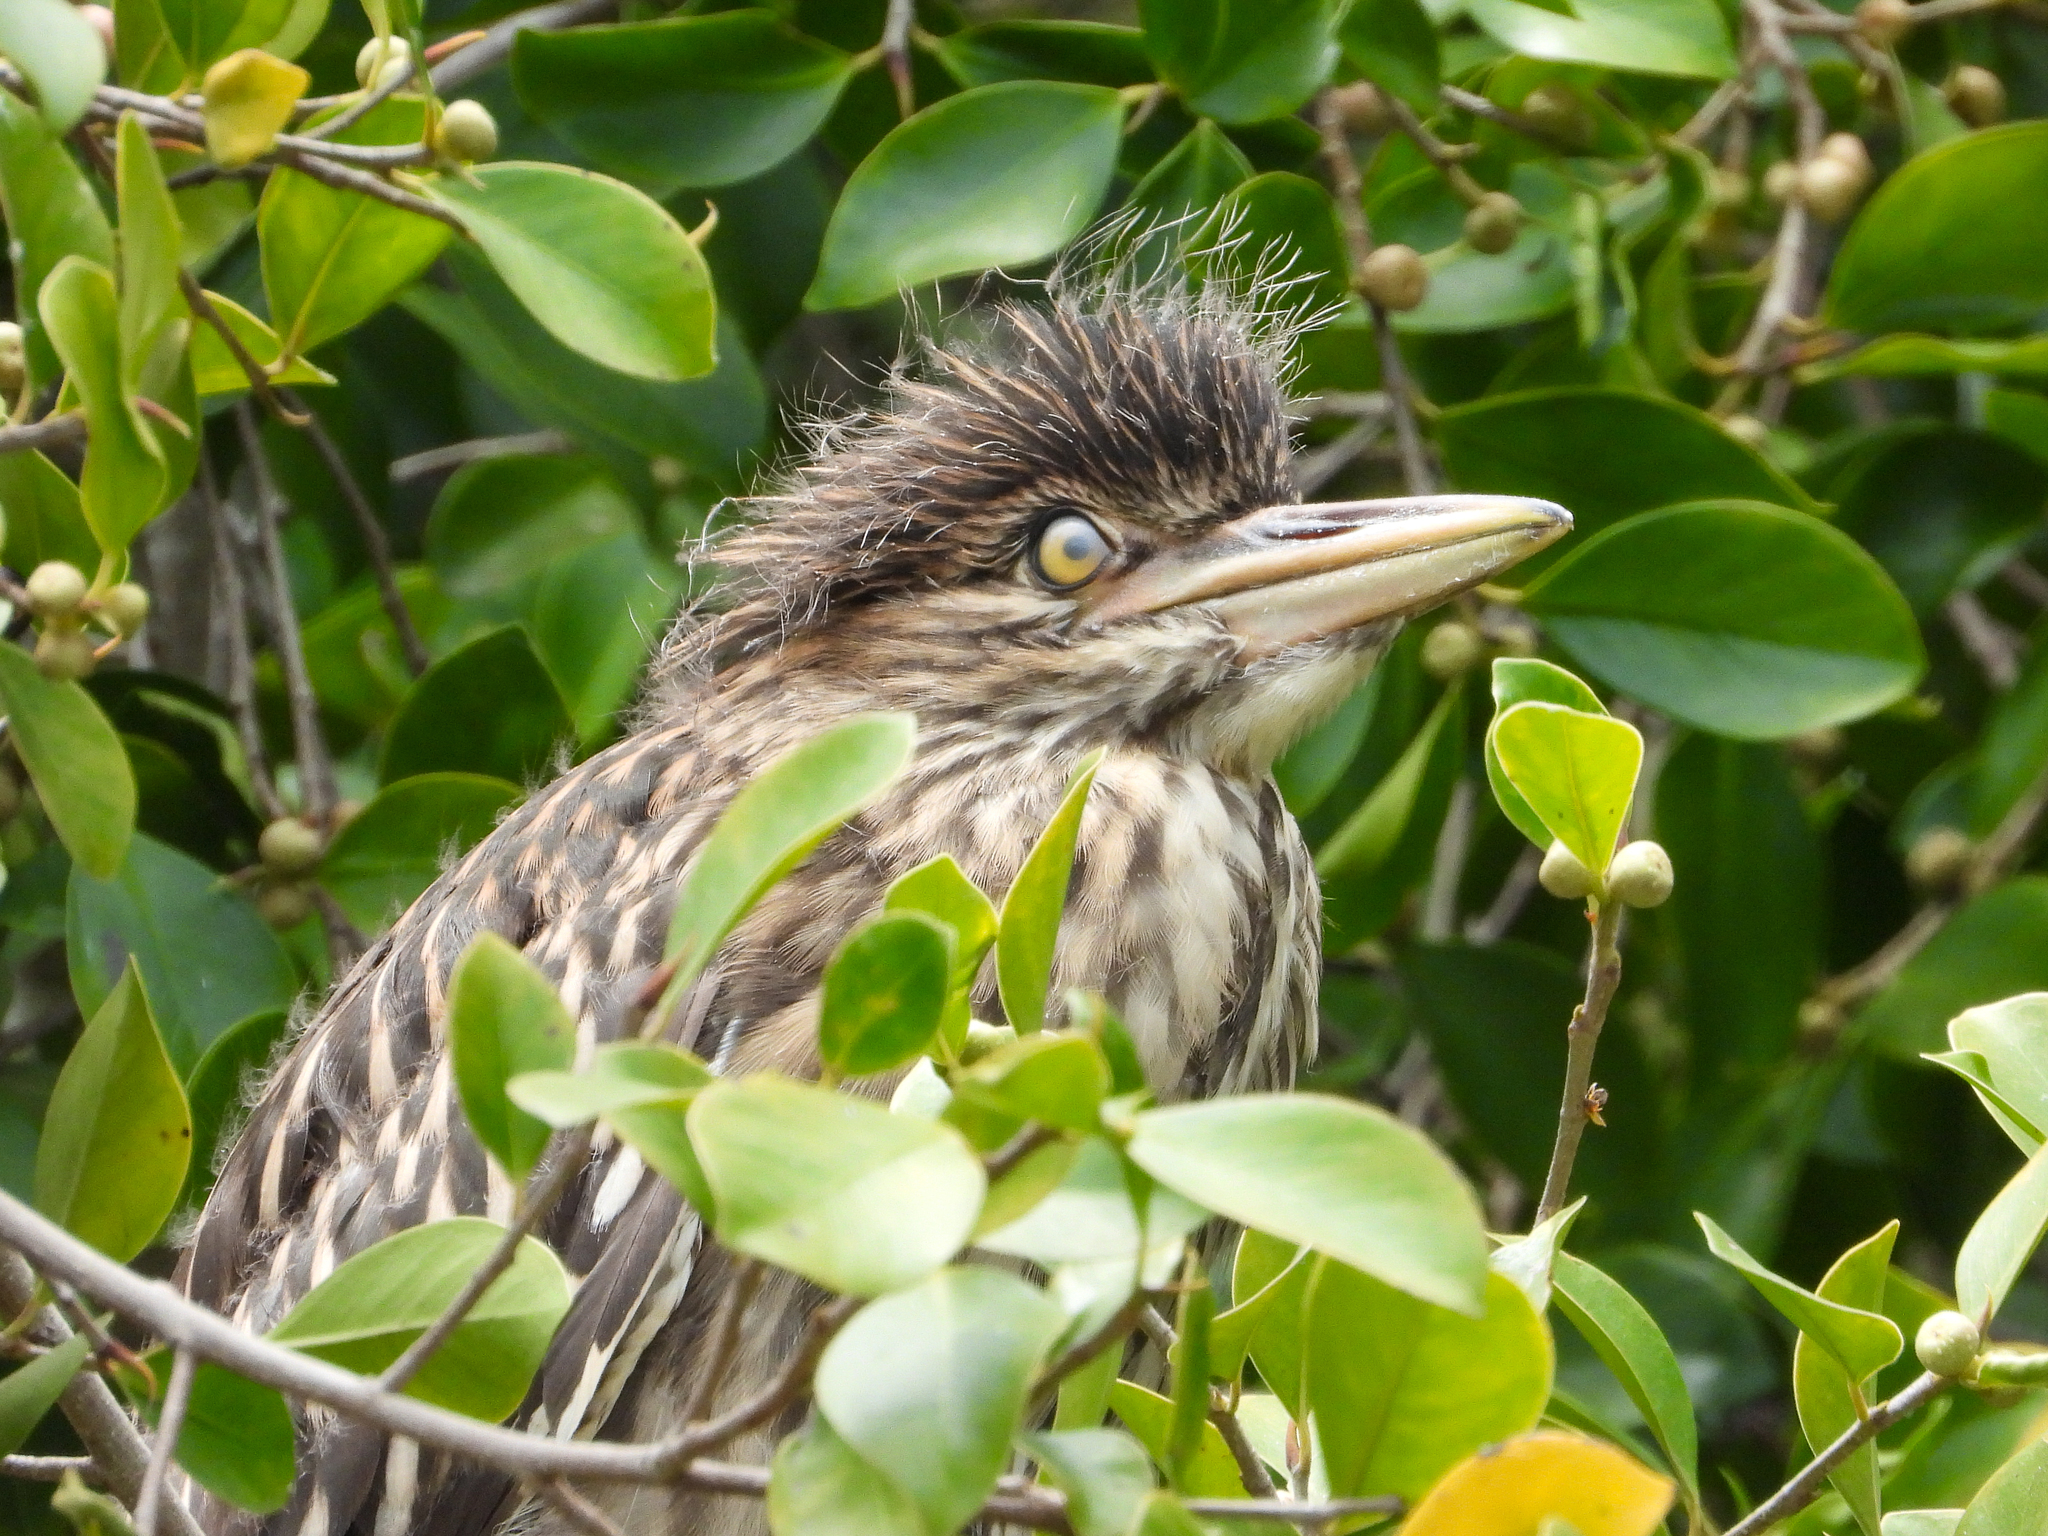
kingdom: Animalia
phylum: Chordata
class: Aves
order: Pelecaniformes
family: Ardeidae
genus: Nycticorax
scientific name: Nycticorax nycticorax
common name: Black-crowned night heron
